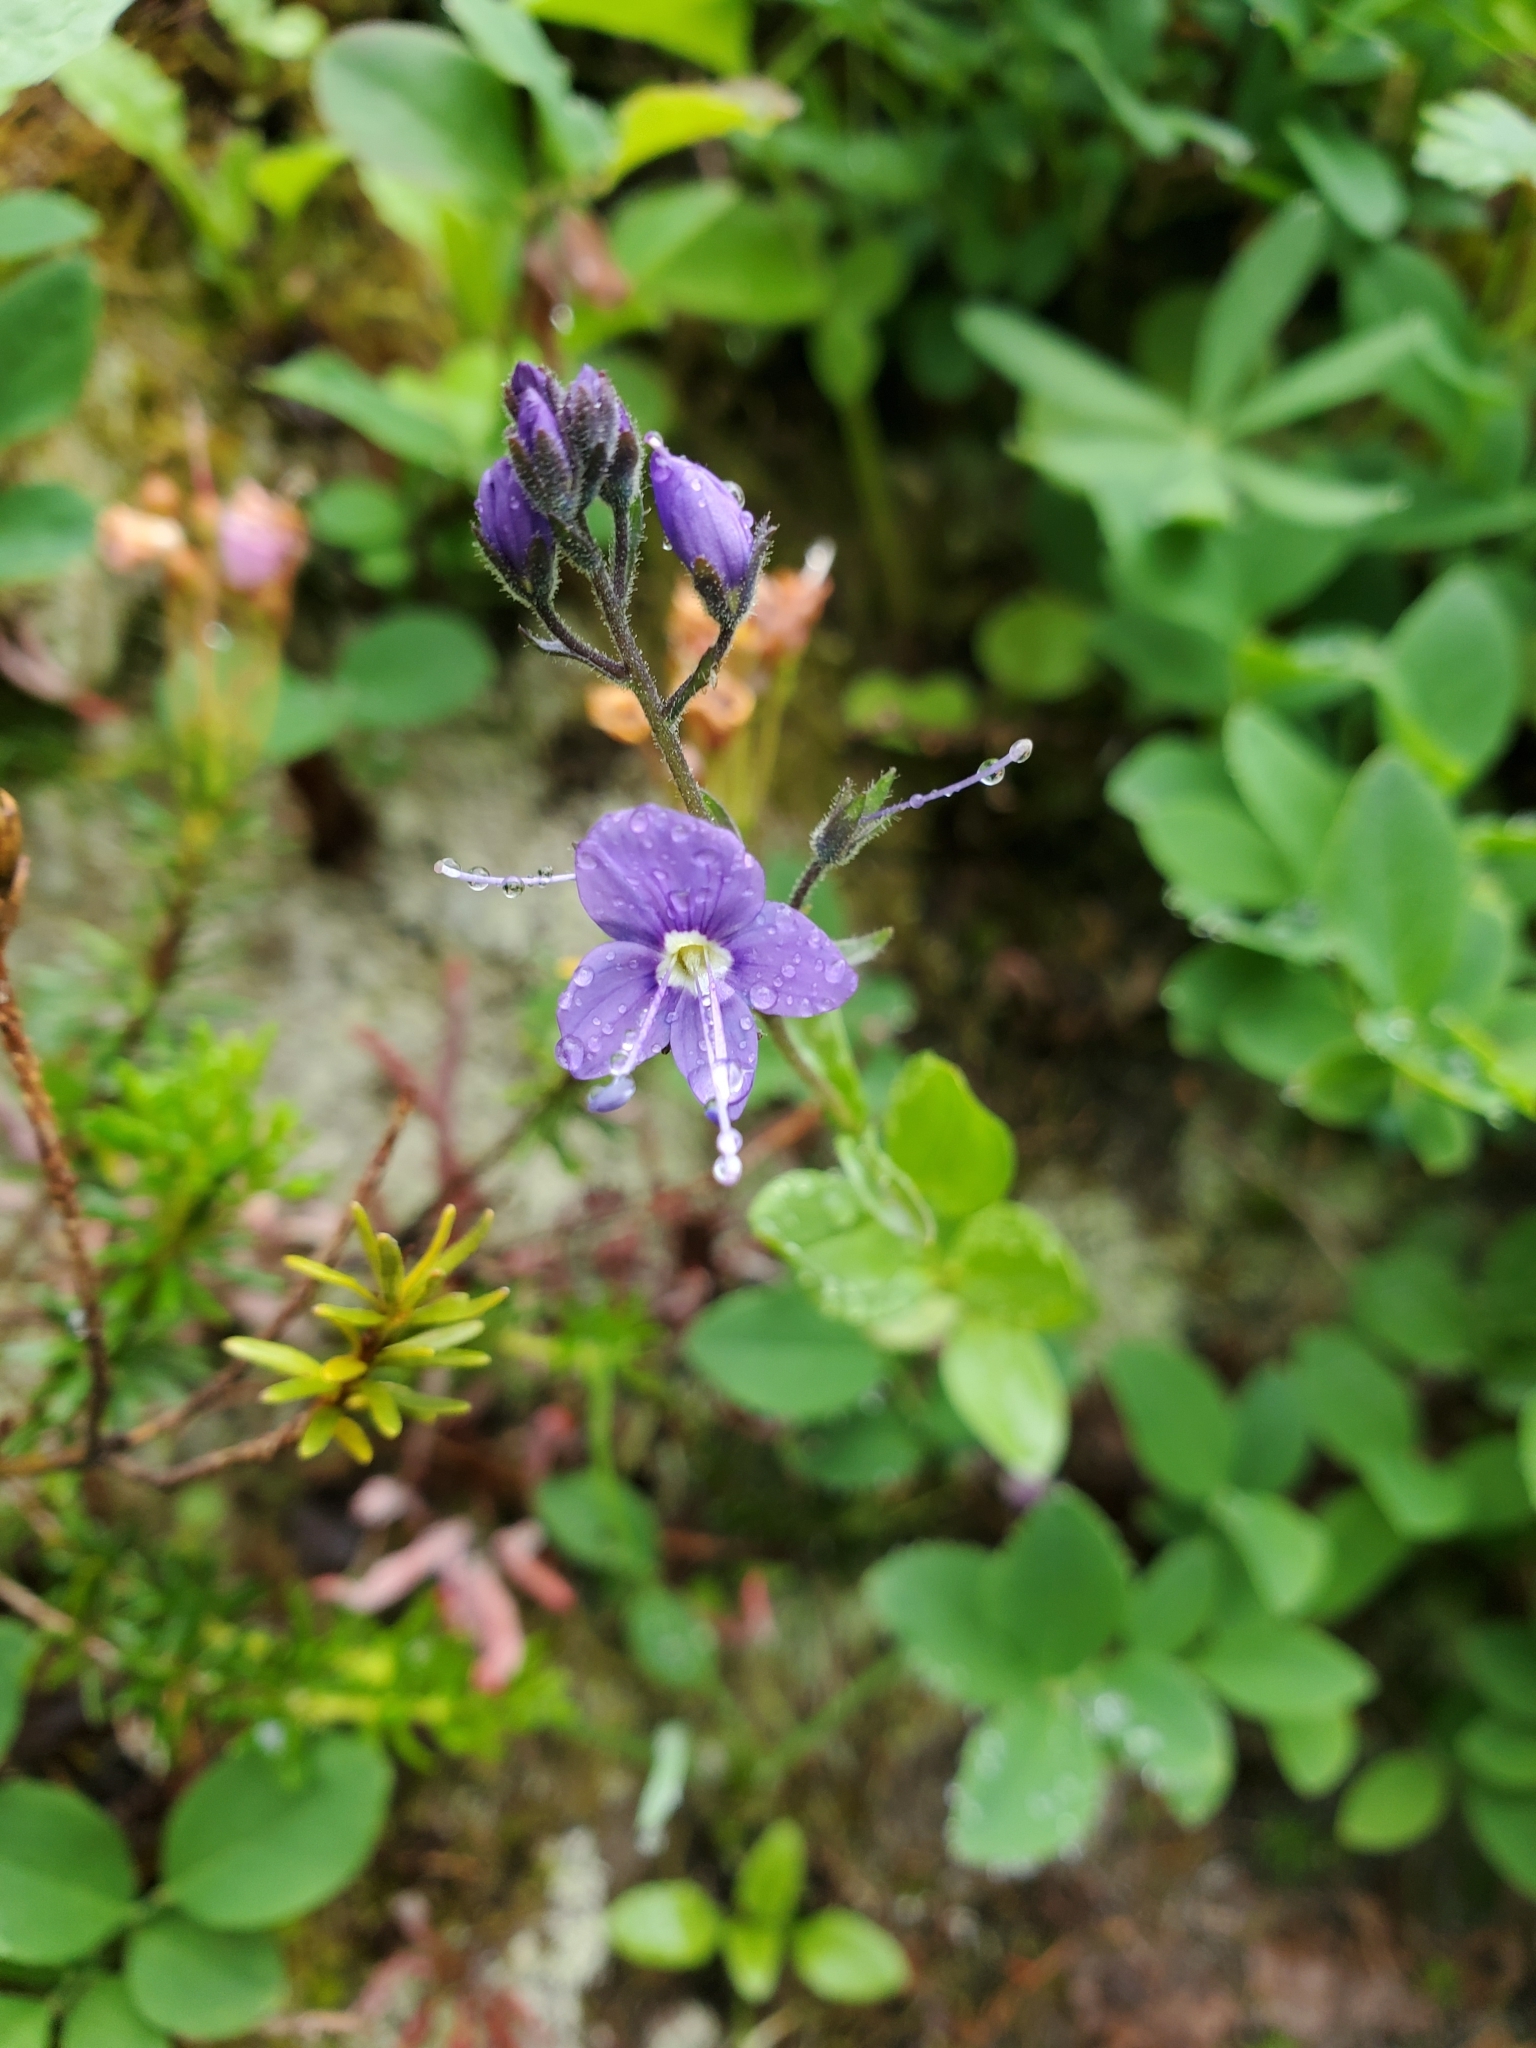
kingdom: Plantae
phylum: Tracheophyta
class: Magnoliopsida
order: Lamiales
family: Plantaginaceae
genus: Veronica
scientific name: Veronica cusickii
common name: Cusick's speedwell
